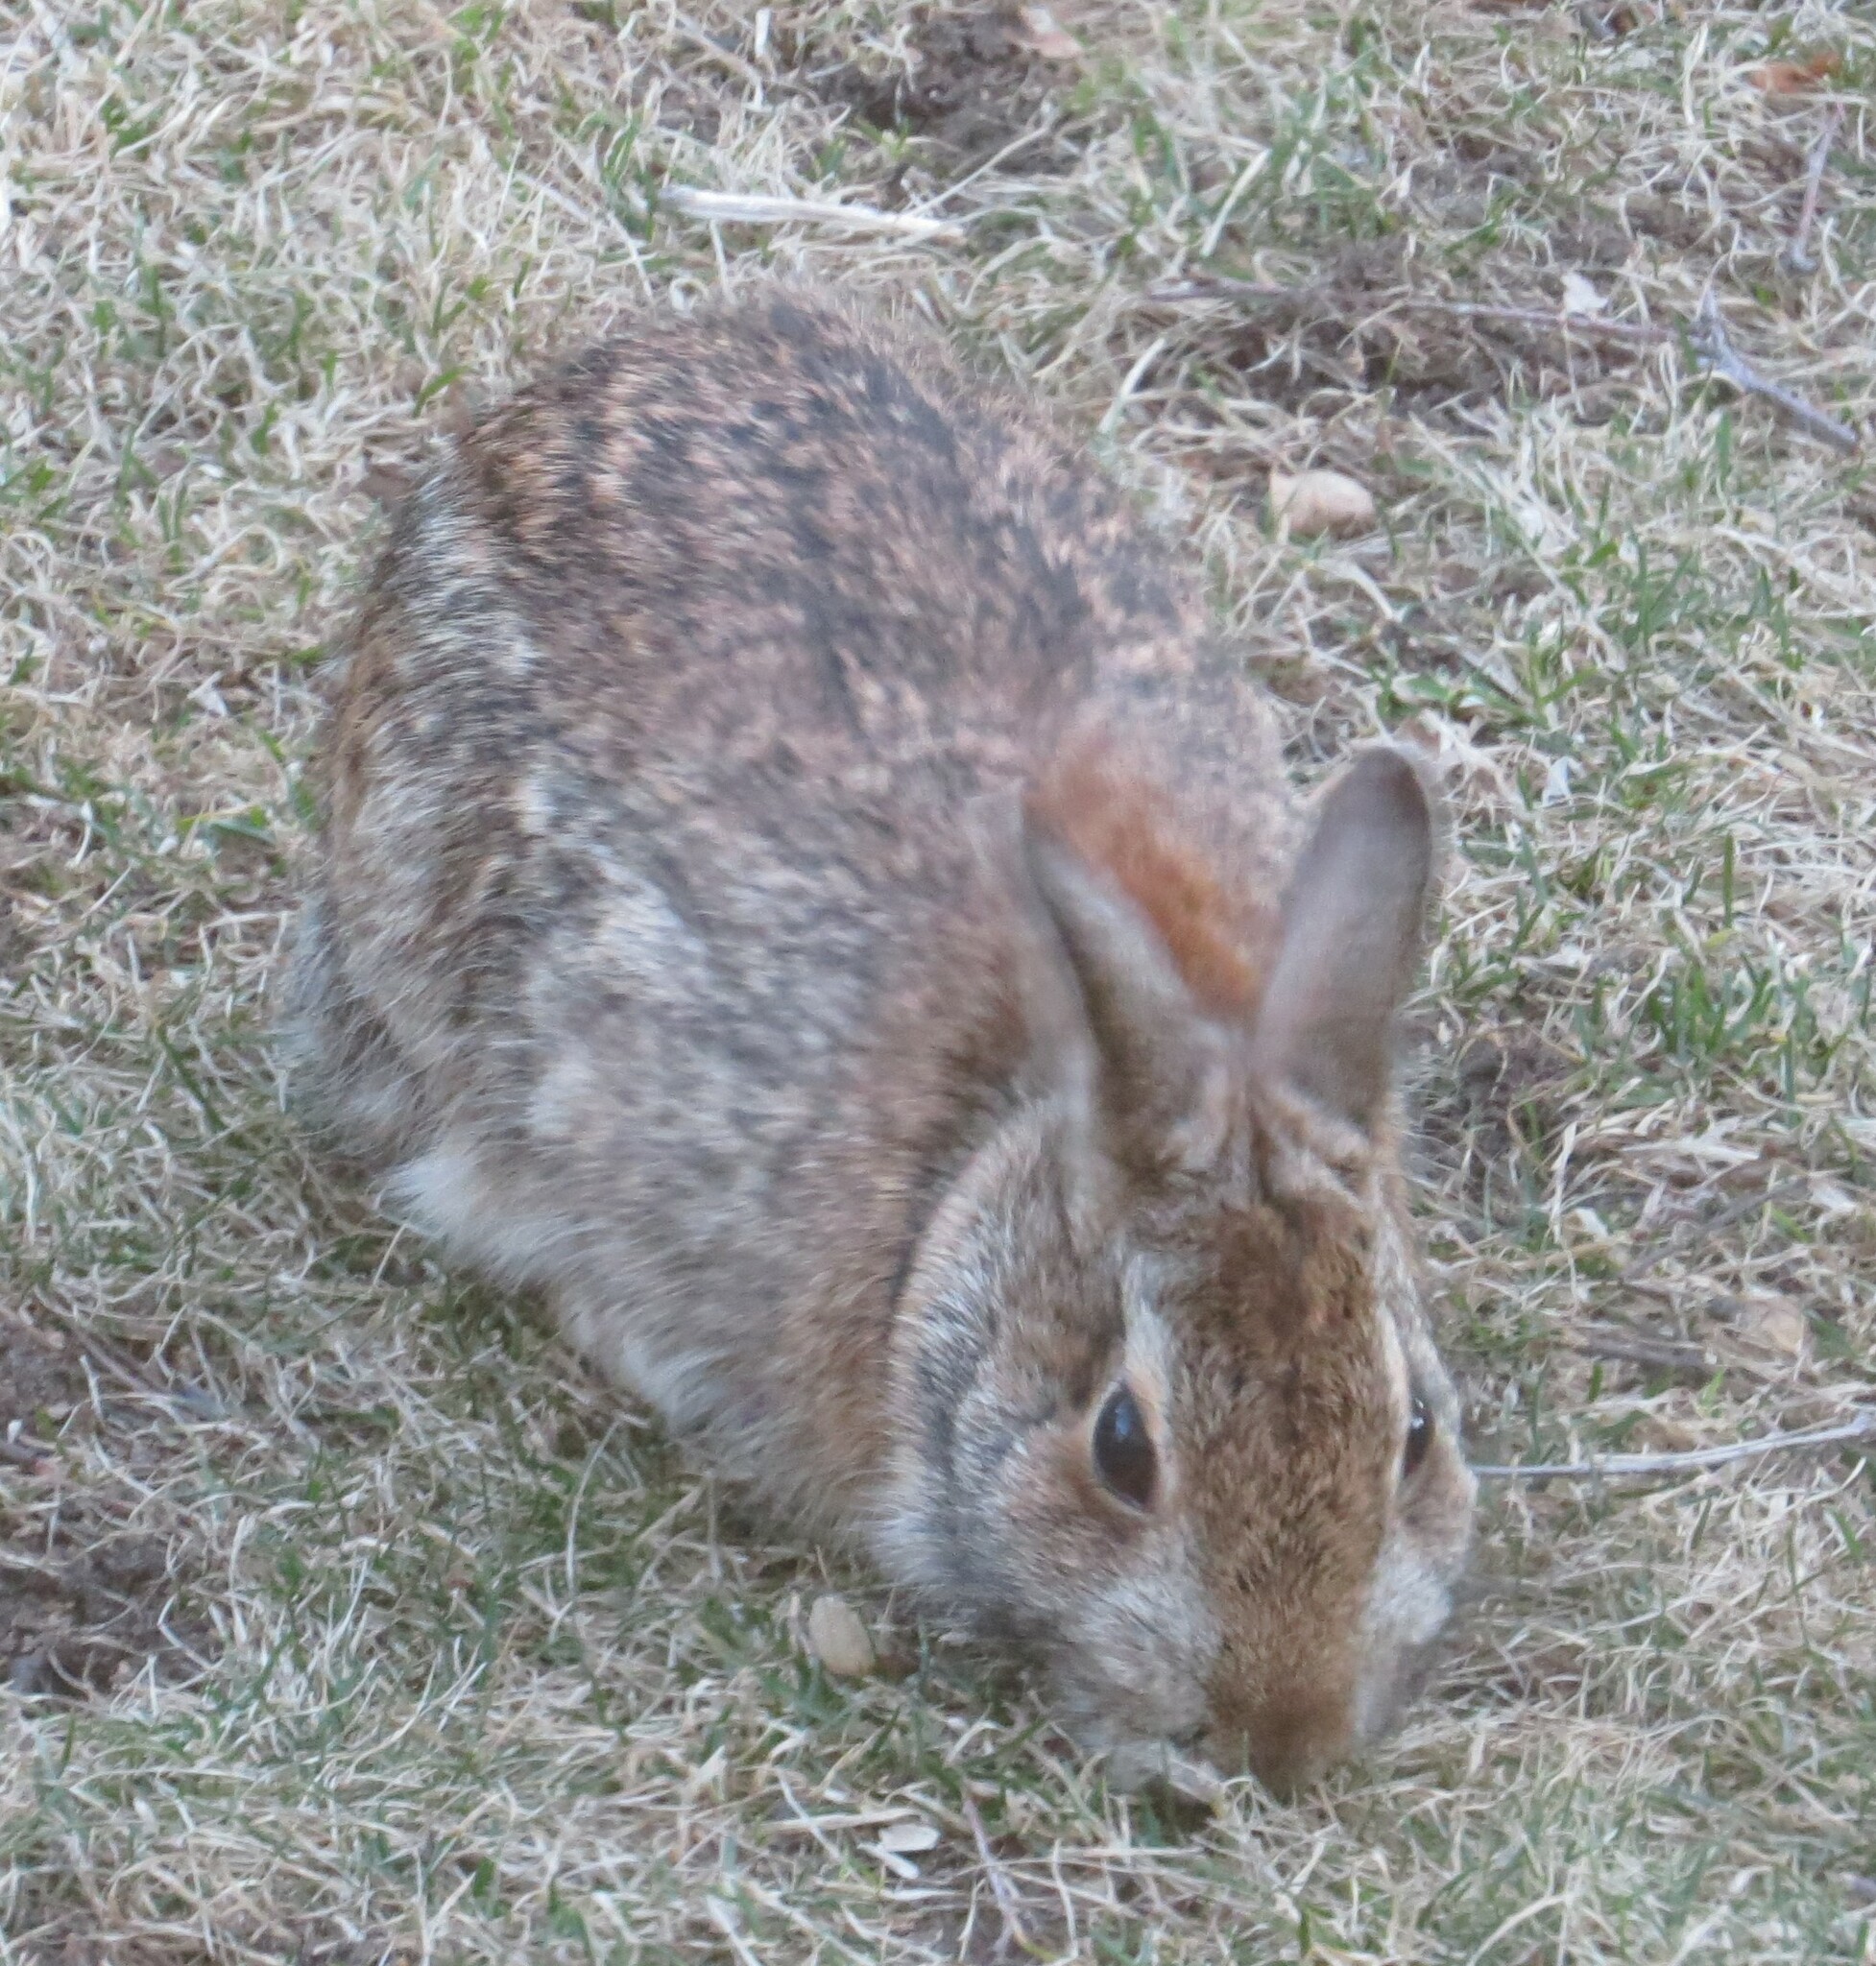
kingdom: Animalia
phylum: Chordata
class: Mammalia
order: Lagomorpha
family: Leporidae
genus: Sylvilagus
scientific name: Sylvilagus floridanus
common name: Eastern cottontail
